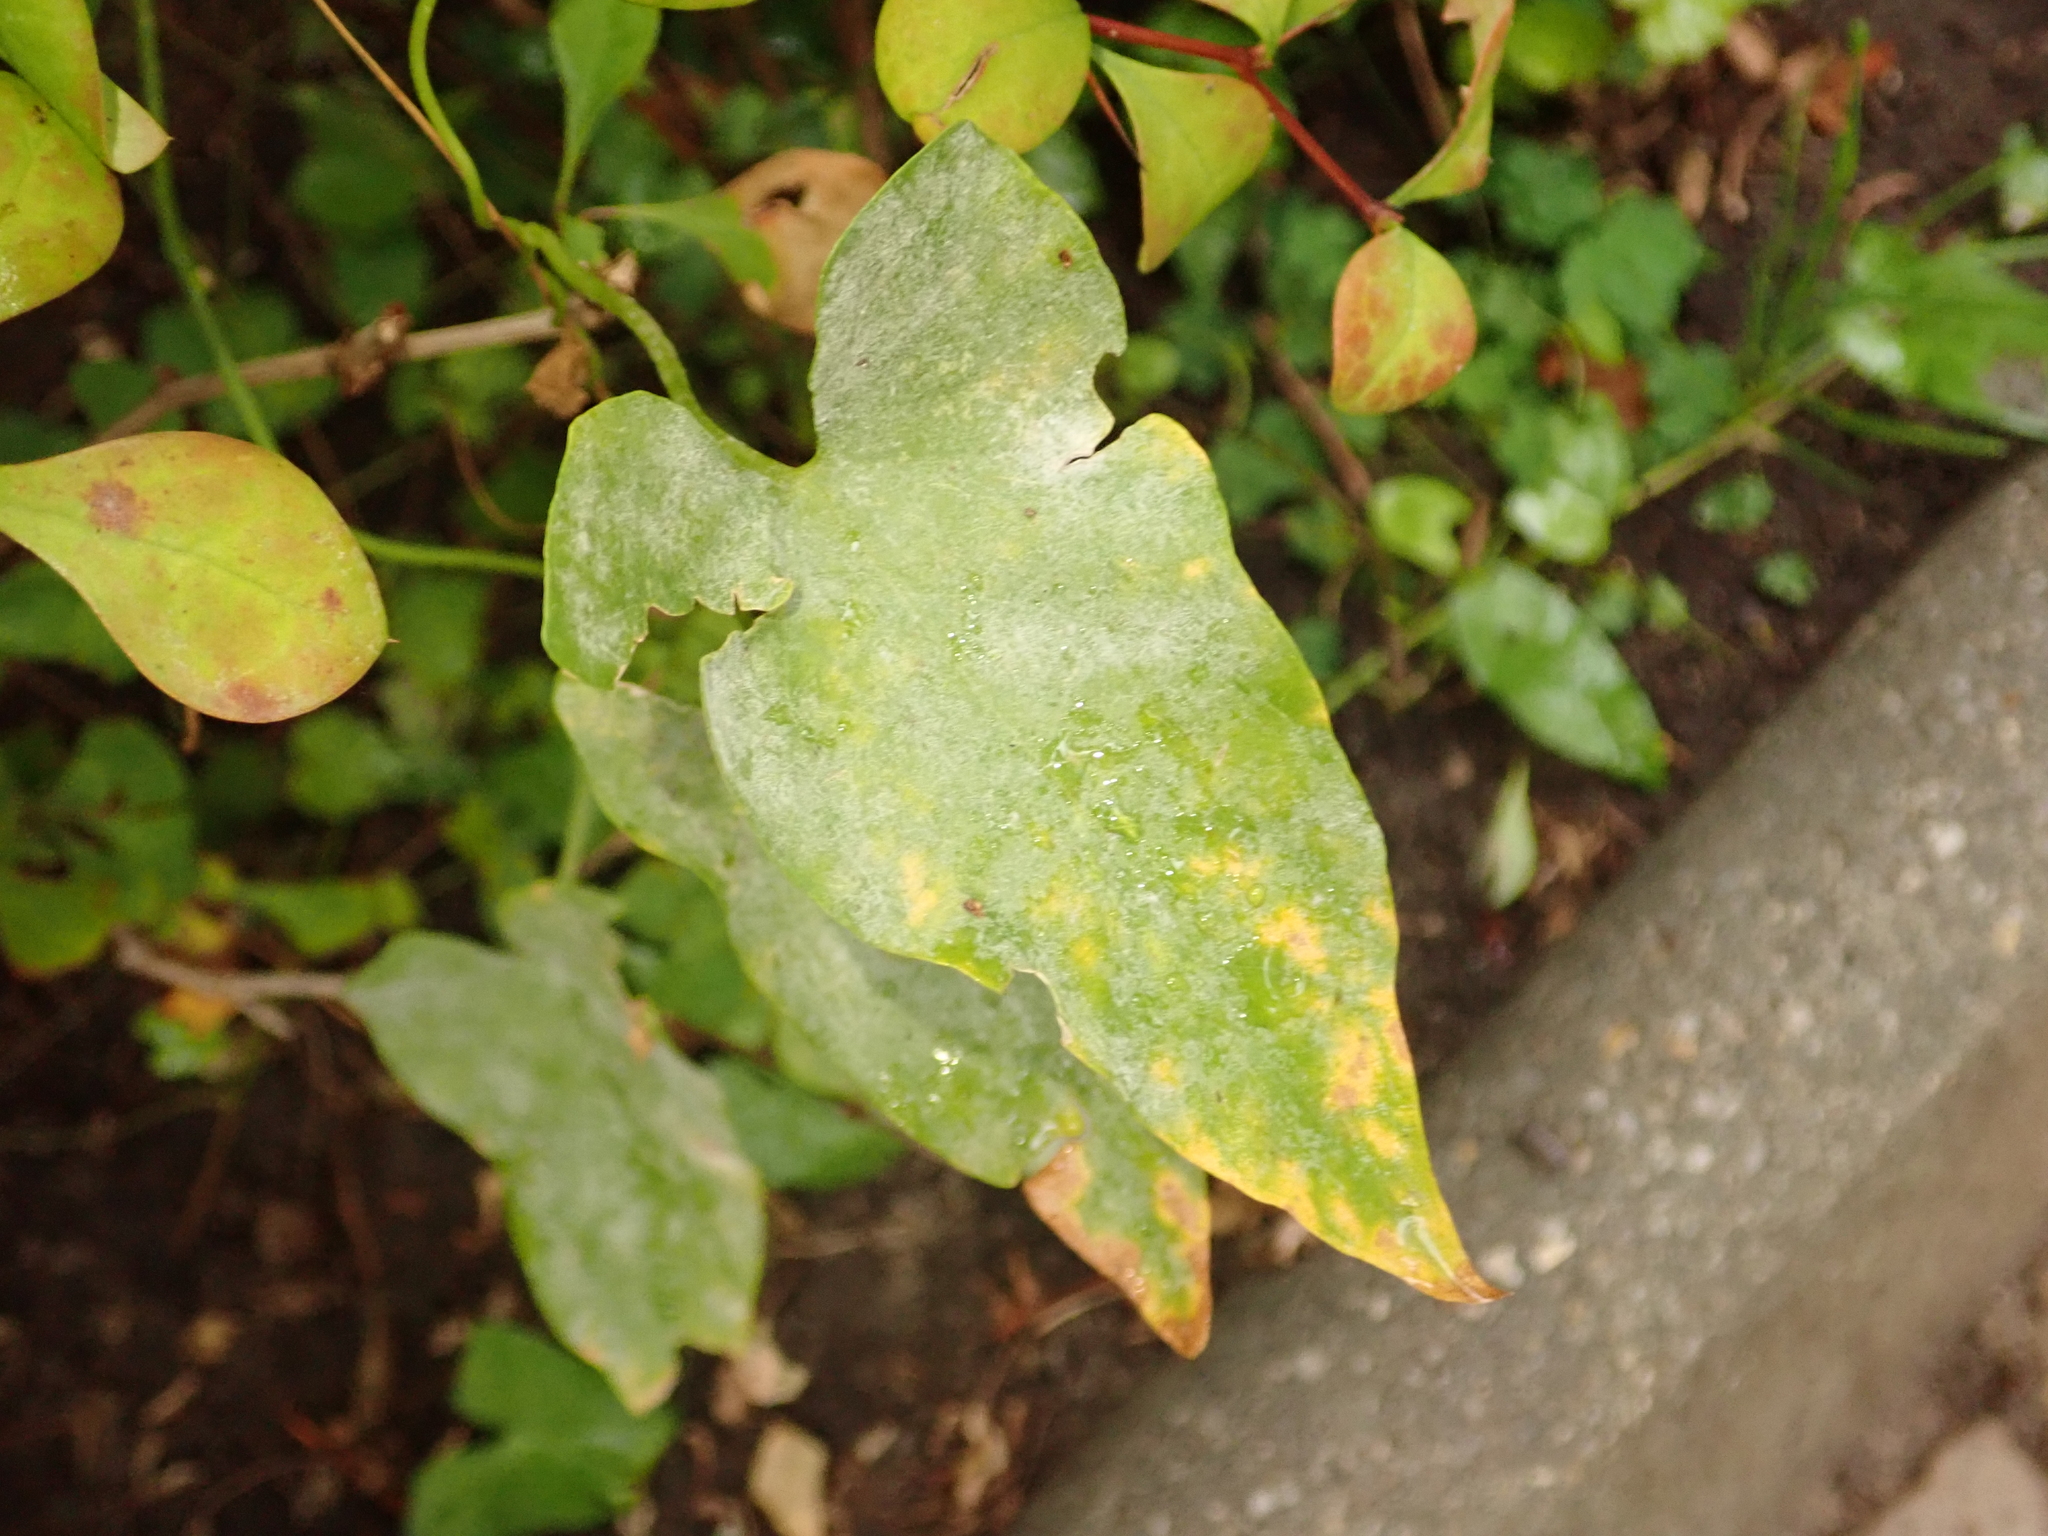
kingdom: Plantae
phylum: Tracheophyta
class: Magnoliopsida
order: Solanales
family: Convolvulaceae
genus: Calystegia
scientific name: Calystegia sepium
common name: Hedge bindweed
